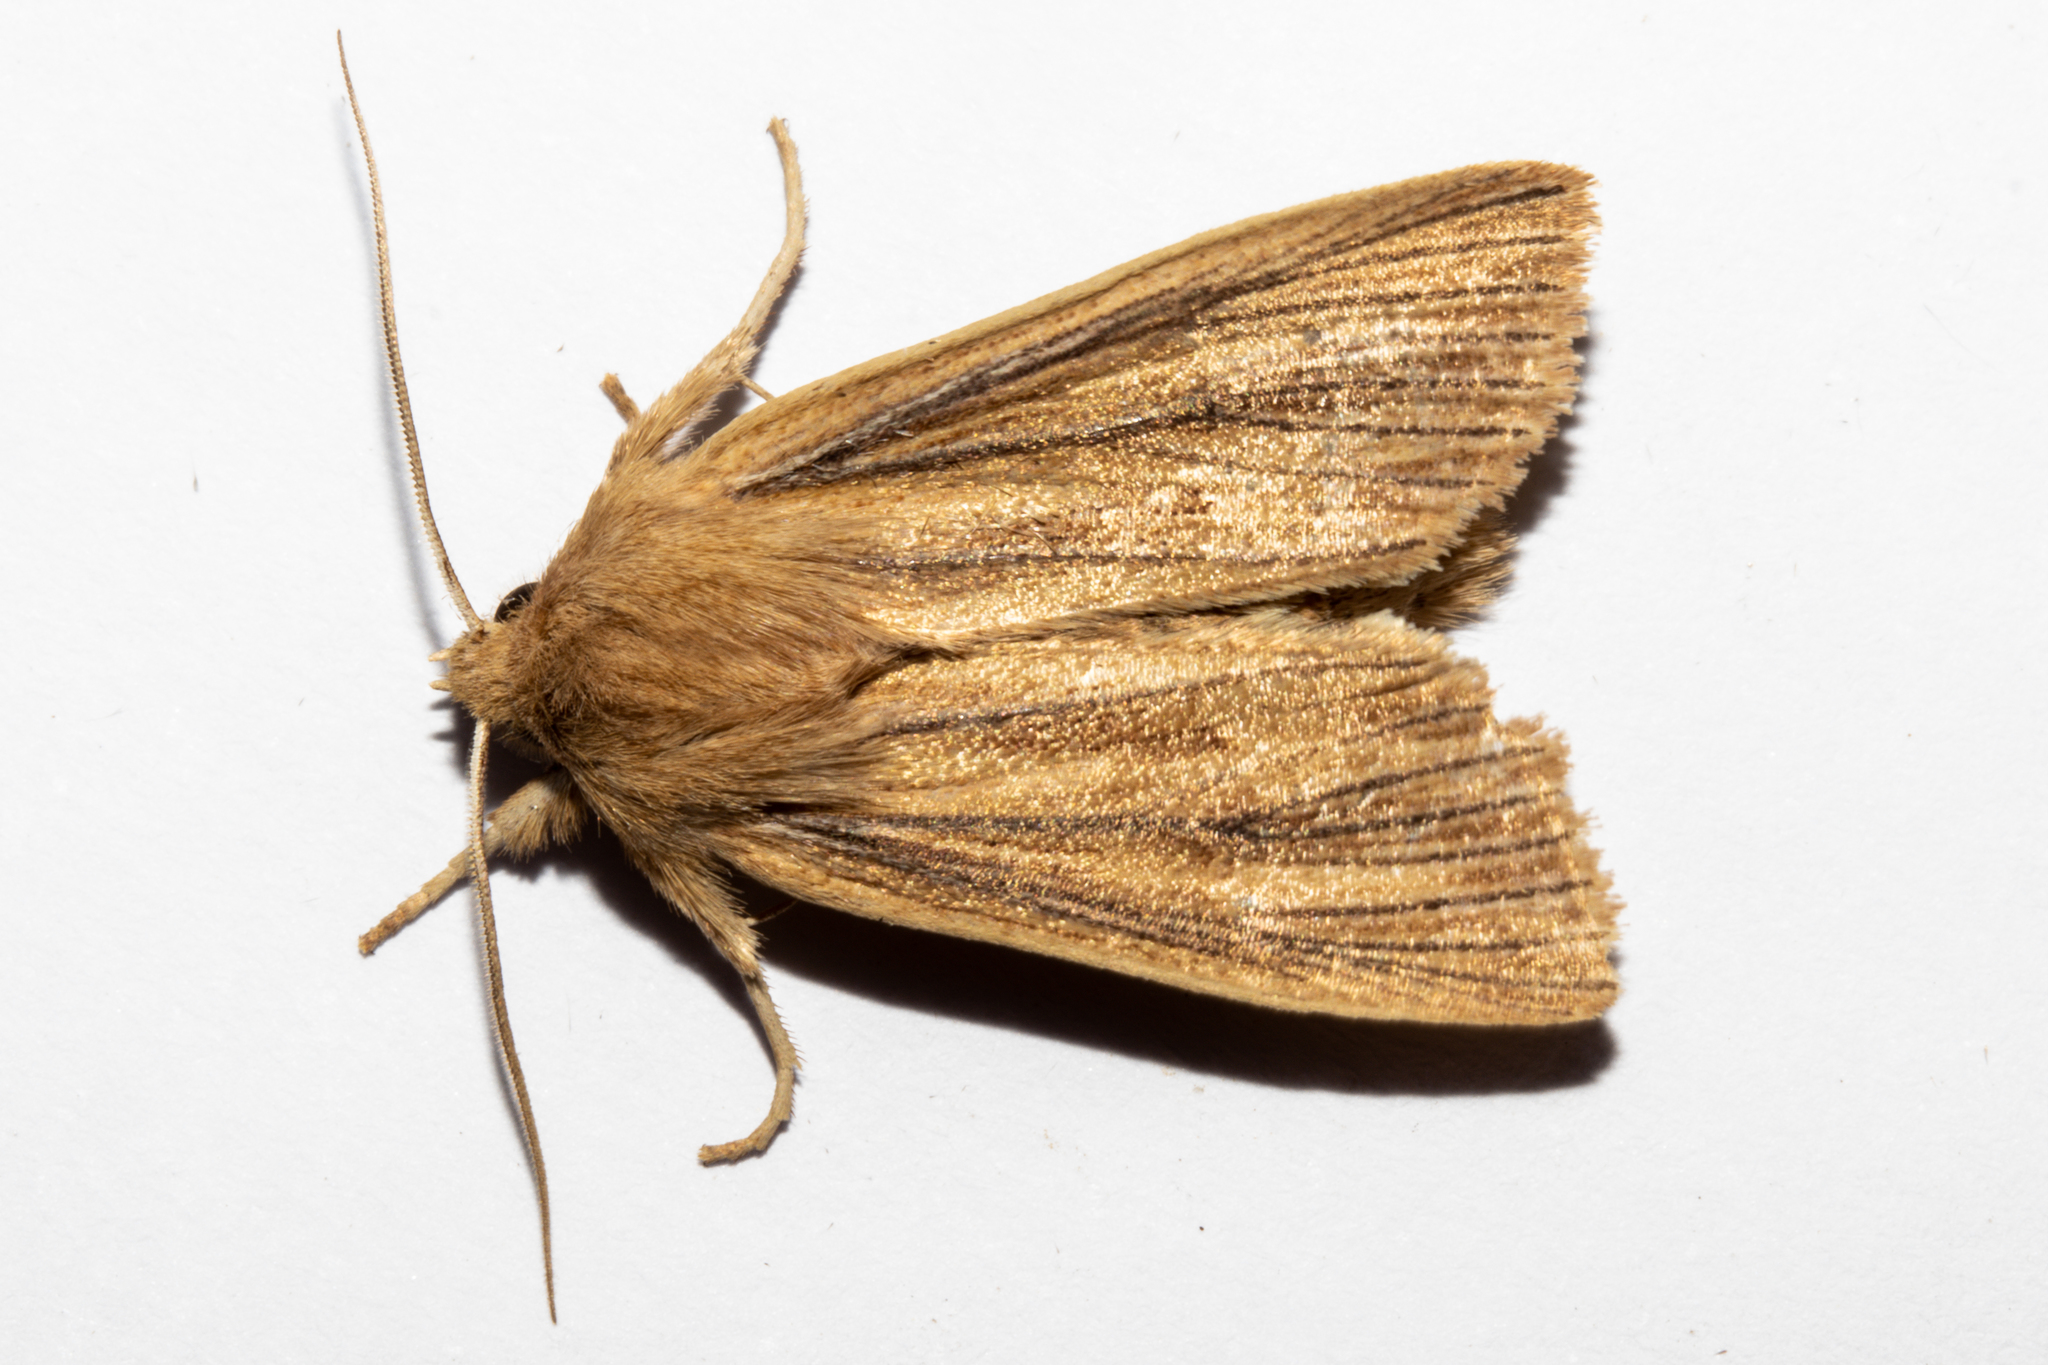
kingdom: Animalia
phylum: Arthropoda
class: Insecta
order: Lepidoptera
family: Noctuidae
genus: Ichneutica
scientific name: Ichneutica arotis
